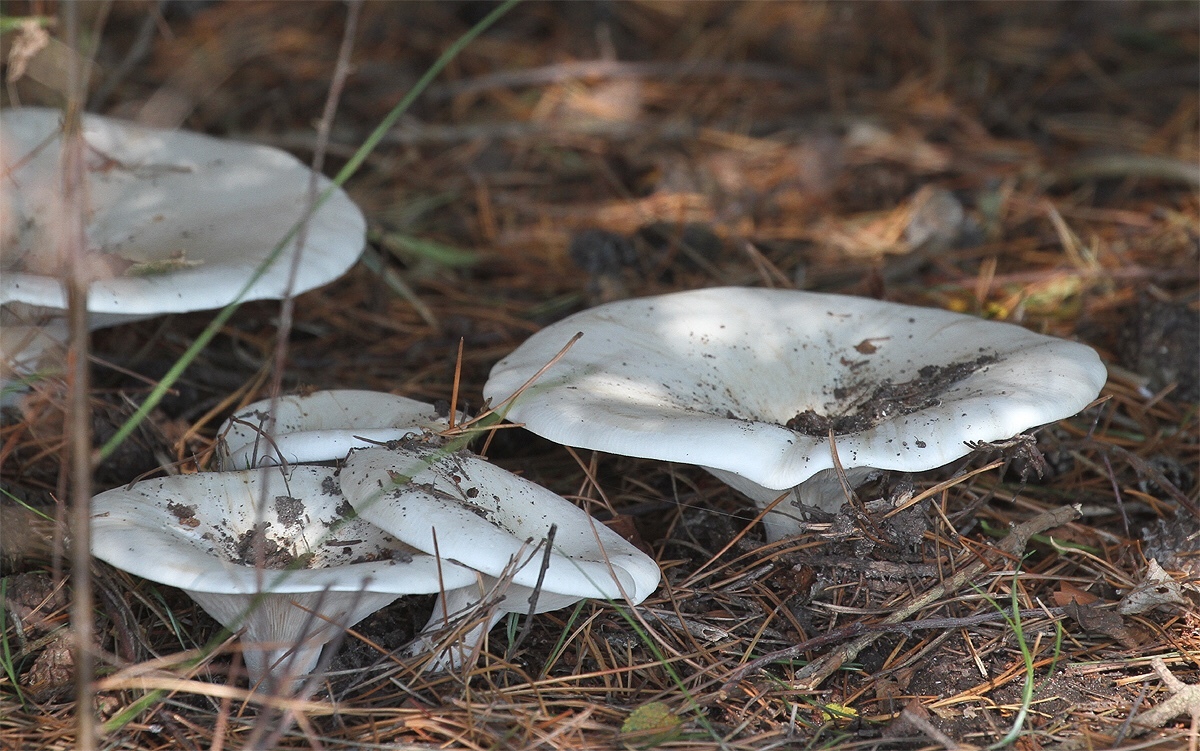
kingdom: Fungi
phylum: Basidiomycota
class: Agaricomycetes
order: Agaricales
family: Tricholomataceae
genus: Aspropaxillus
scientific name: Aspropaxillus giganteus
